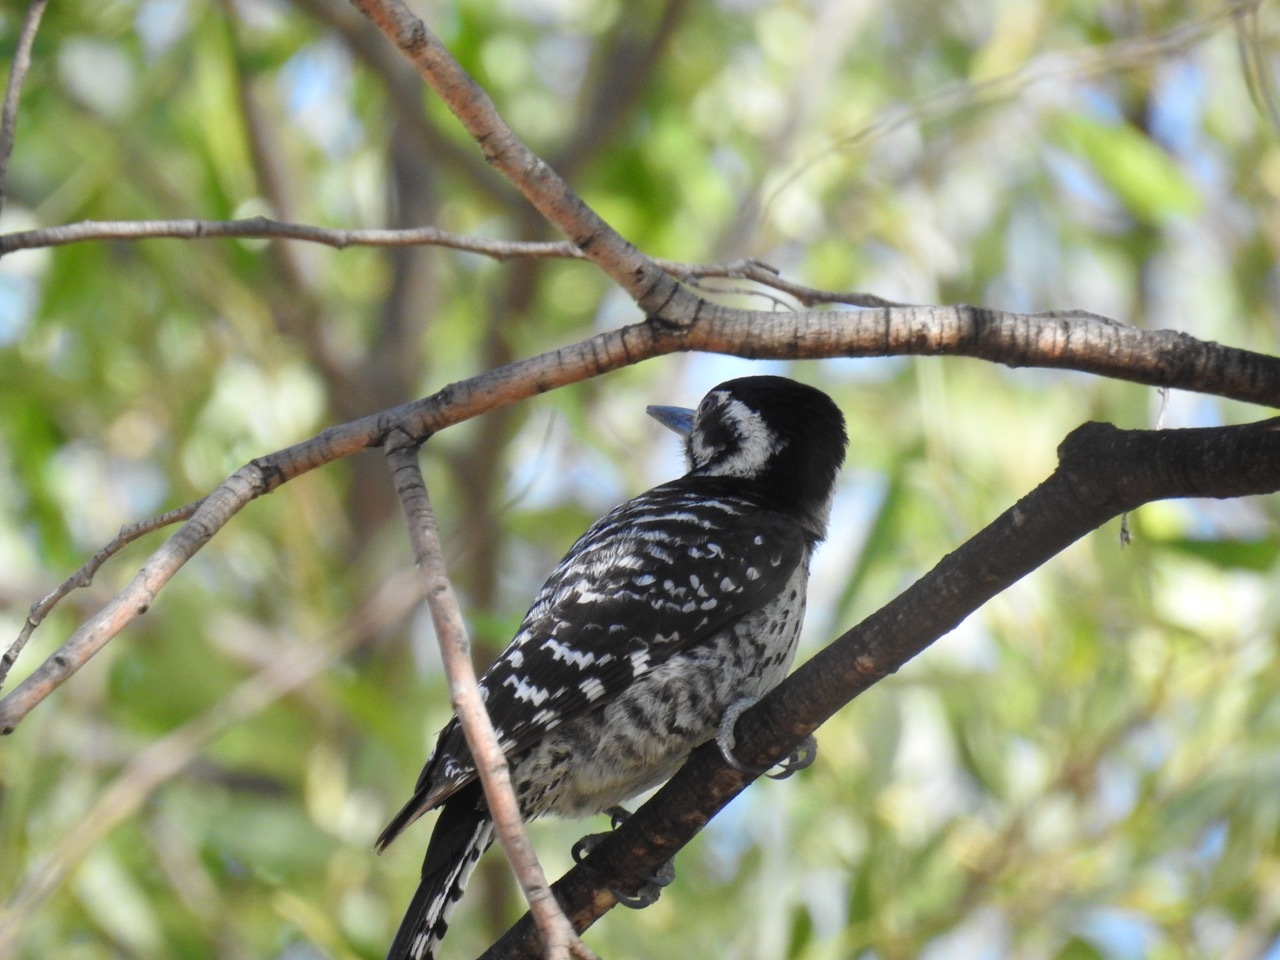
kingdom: Animalia
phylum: Chordata
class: Aves
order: Piciformes
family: Picidae
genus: Dryobates
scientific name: Dryobates nuttallii
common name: Nuttall's woodpecker
